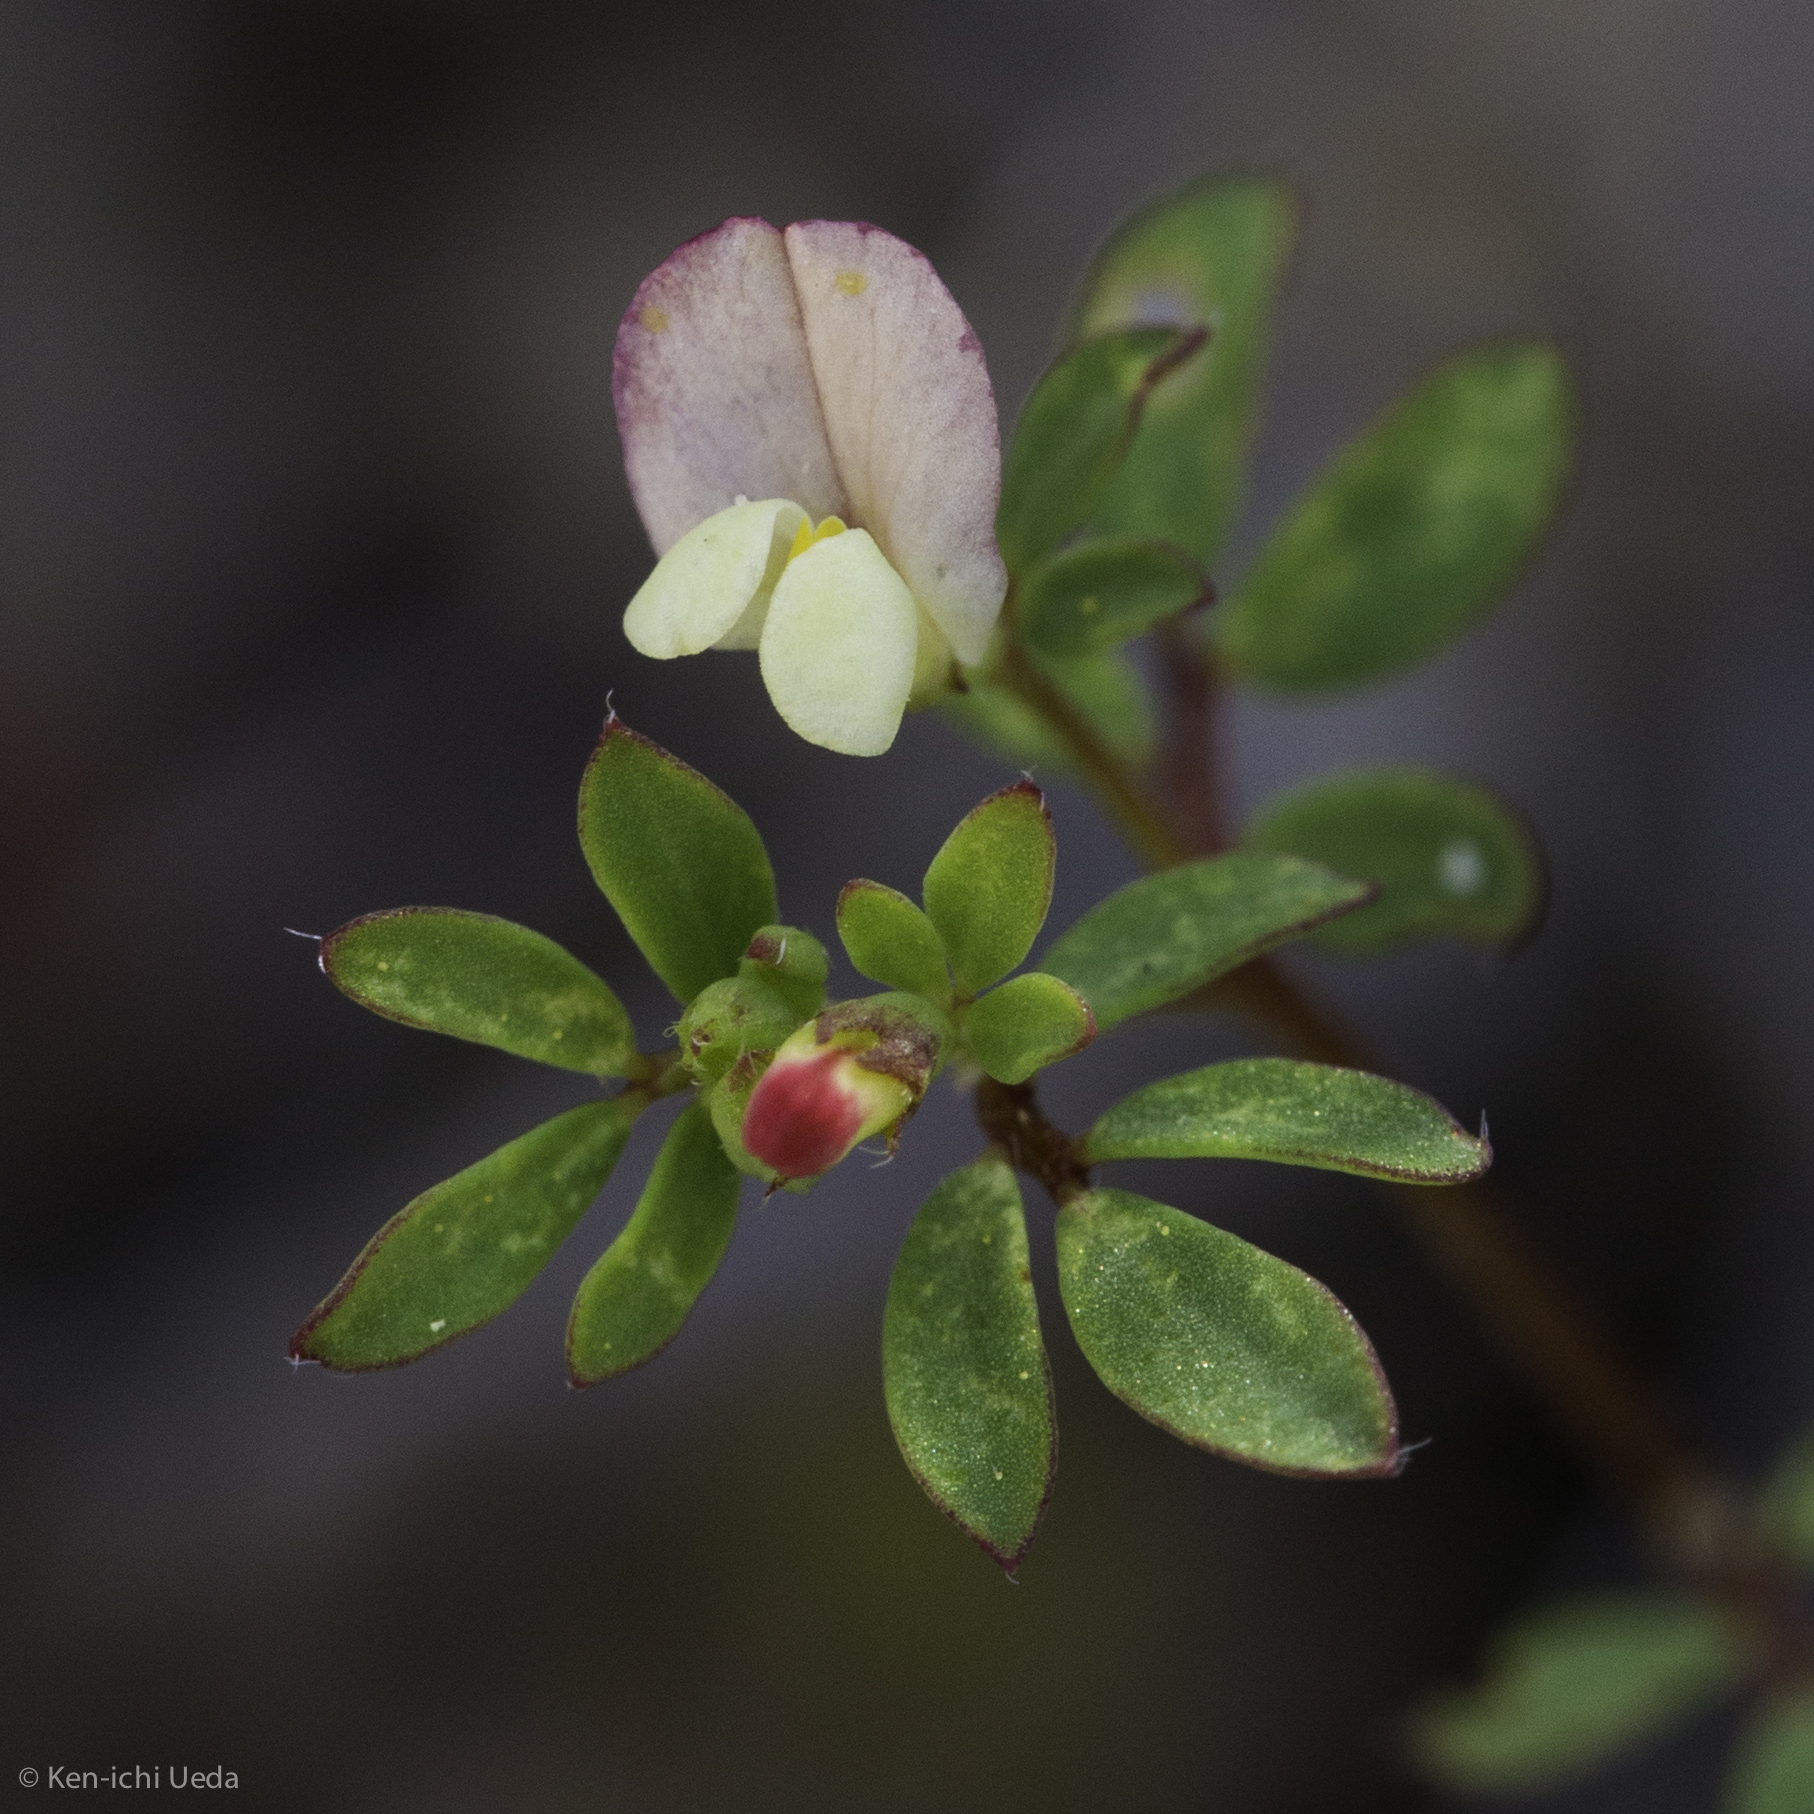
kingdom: Plantae
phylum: Tracheophyta
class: Magnoliopsida
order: Fabales
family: Fabaceae
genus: Acmispon
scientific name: Acmispon parviflorus
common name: Desert deer-vetch
